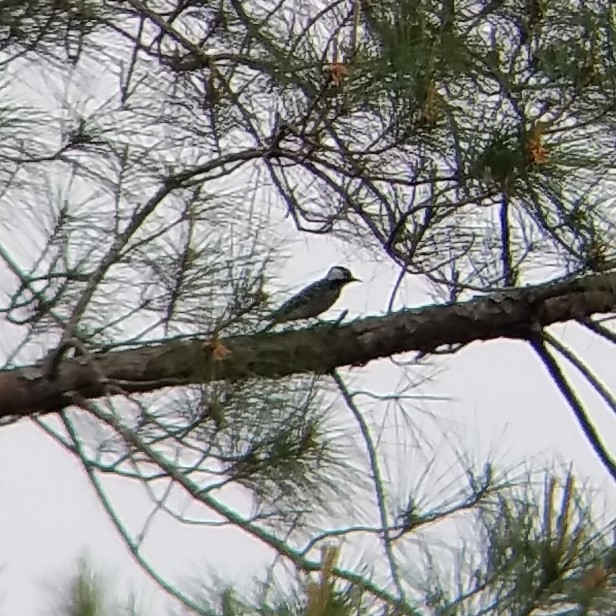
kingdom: Animalia
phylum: Chordata
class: Aves
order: Piciformes
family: Picidae
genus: Leuconotopicus
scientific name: Leuconotopicus borealis
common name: Red-cockaded woodpecker
